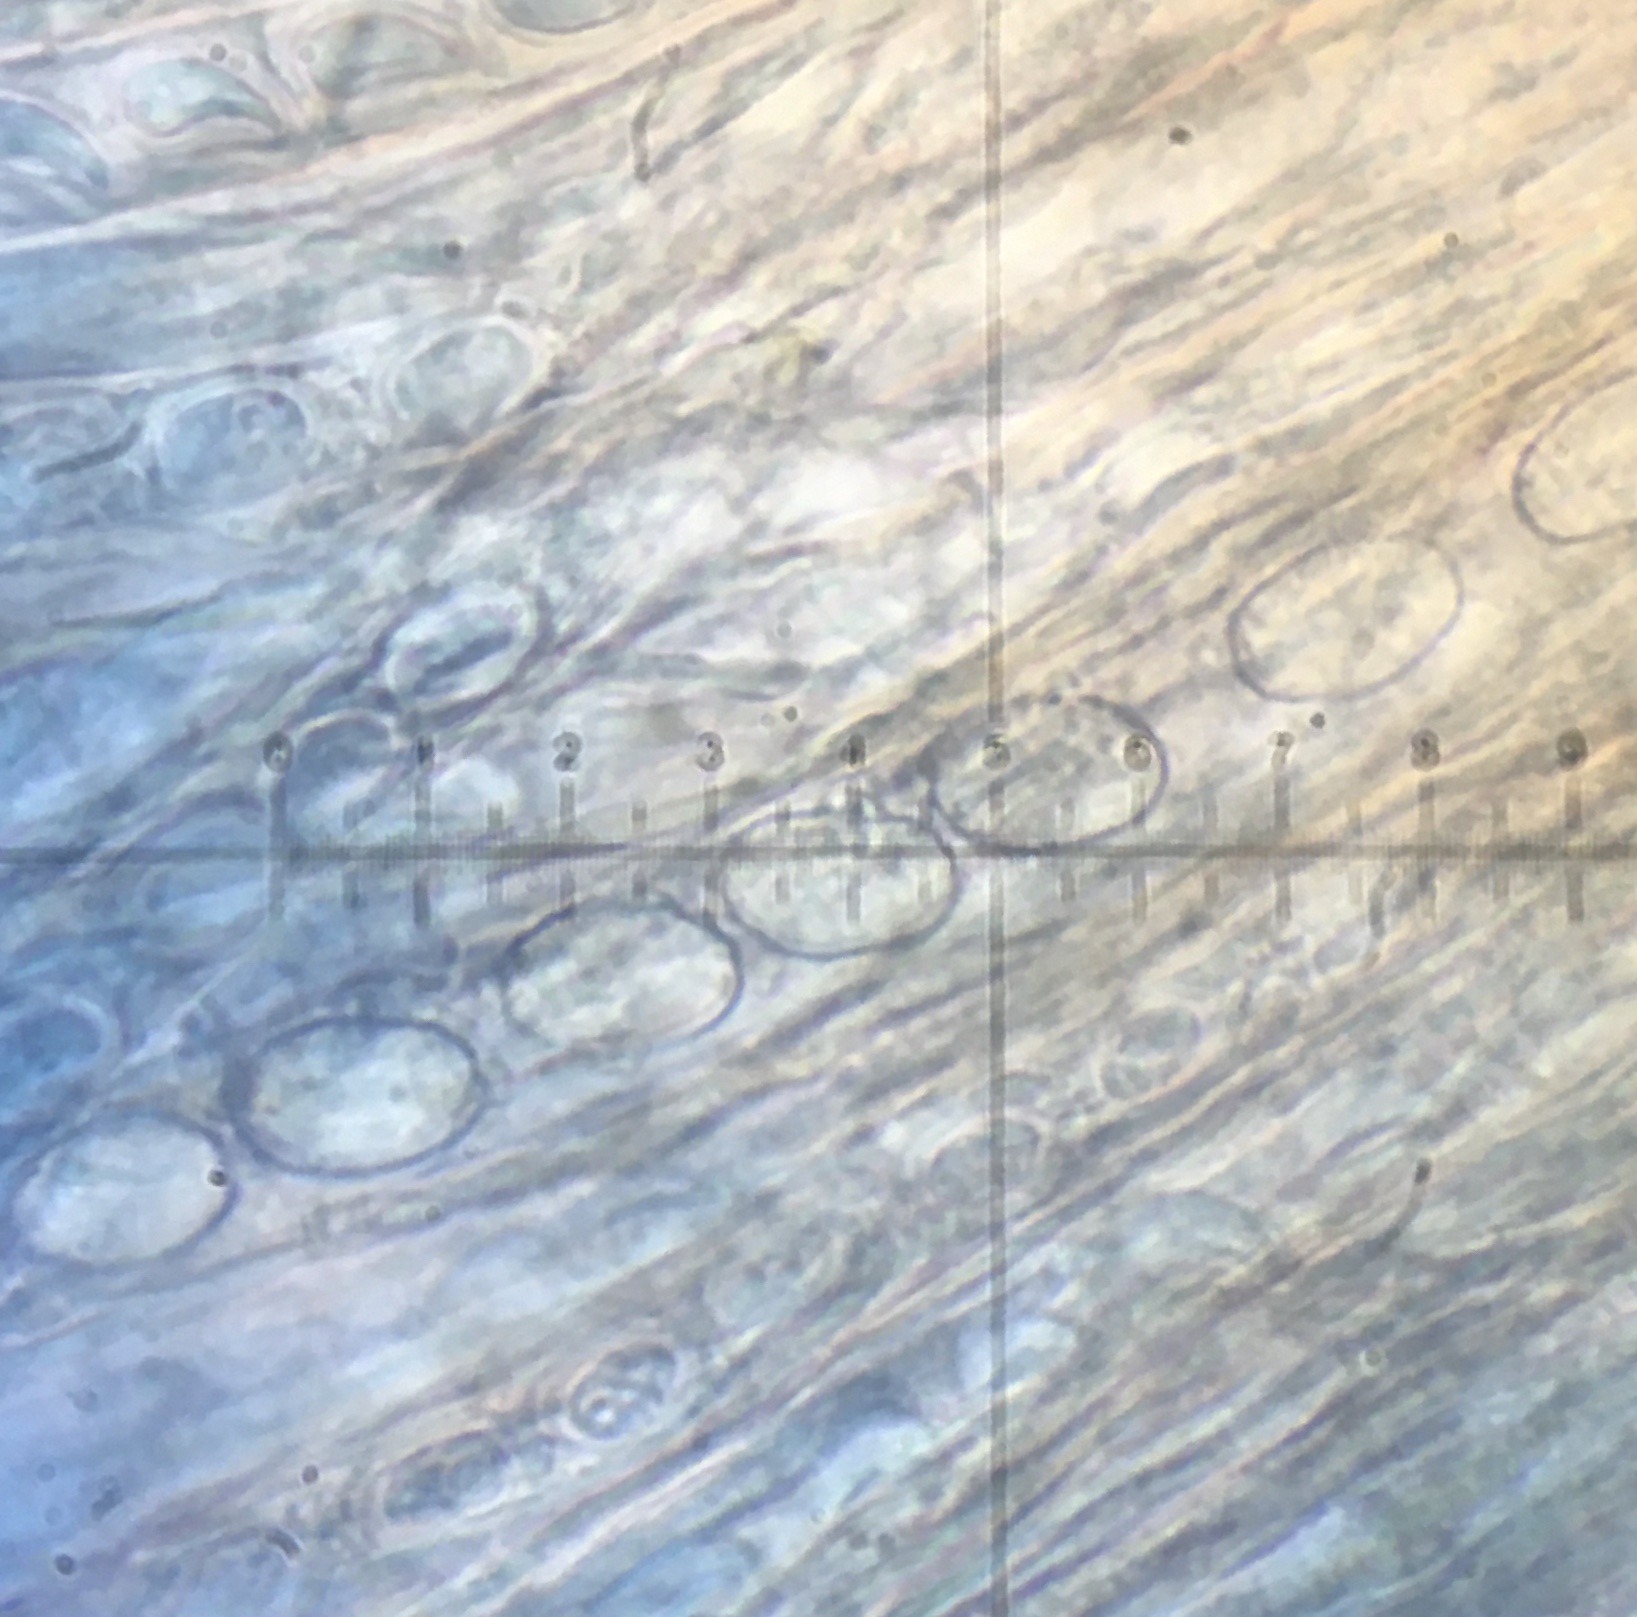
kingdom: Fungi
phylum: Ascomycota
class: Pezizomycetes
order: Pezizales
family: Pyronemataceae
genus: Scutellinia
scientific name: Scutellinia pennsylvanica
